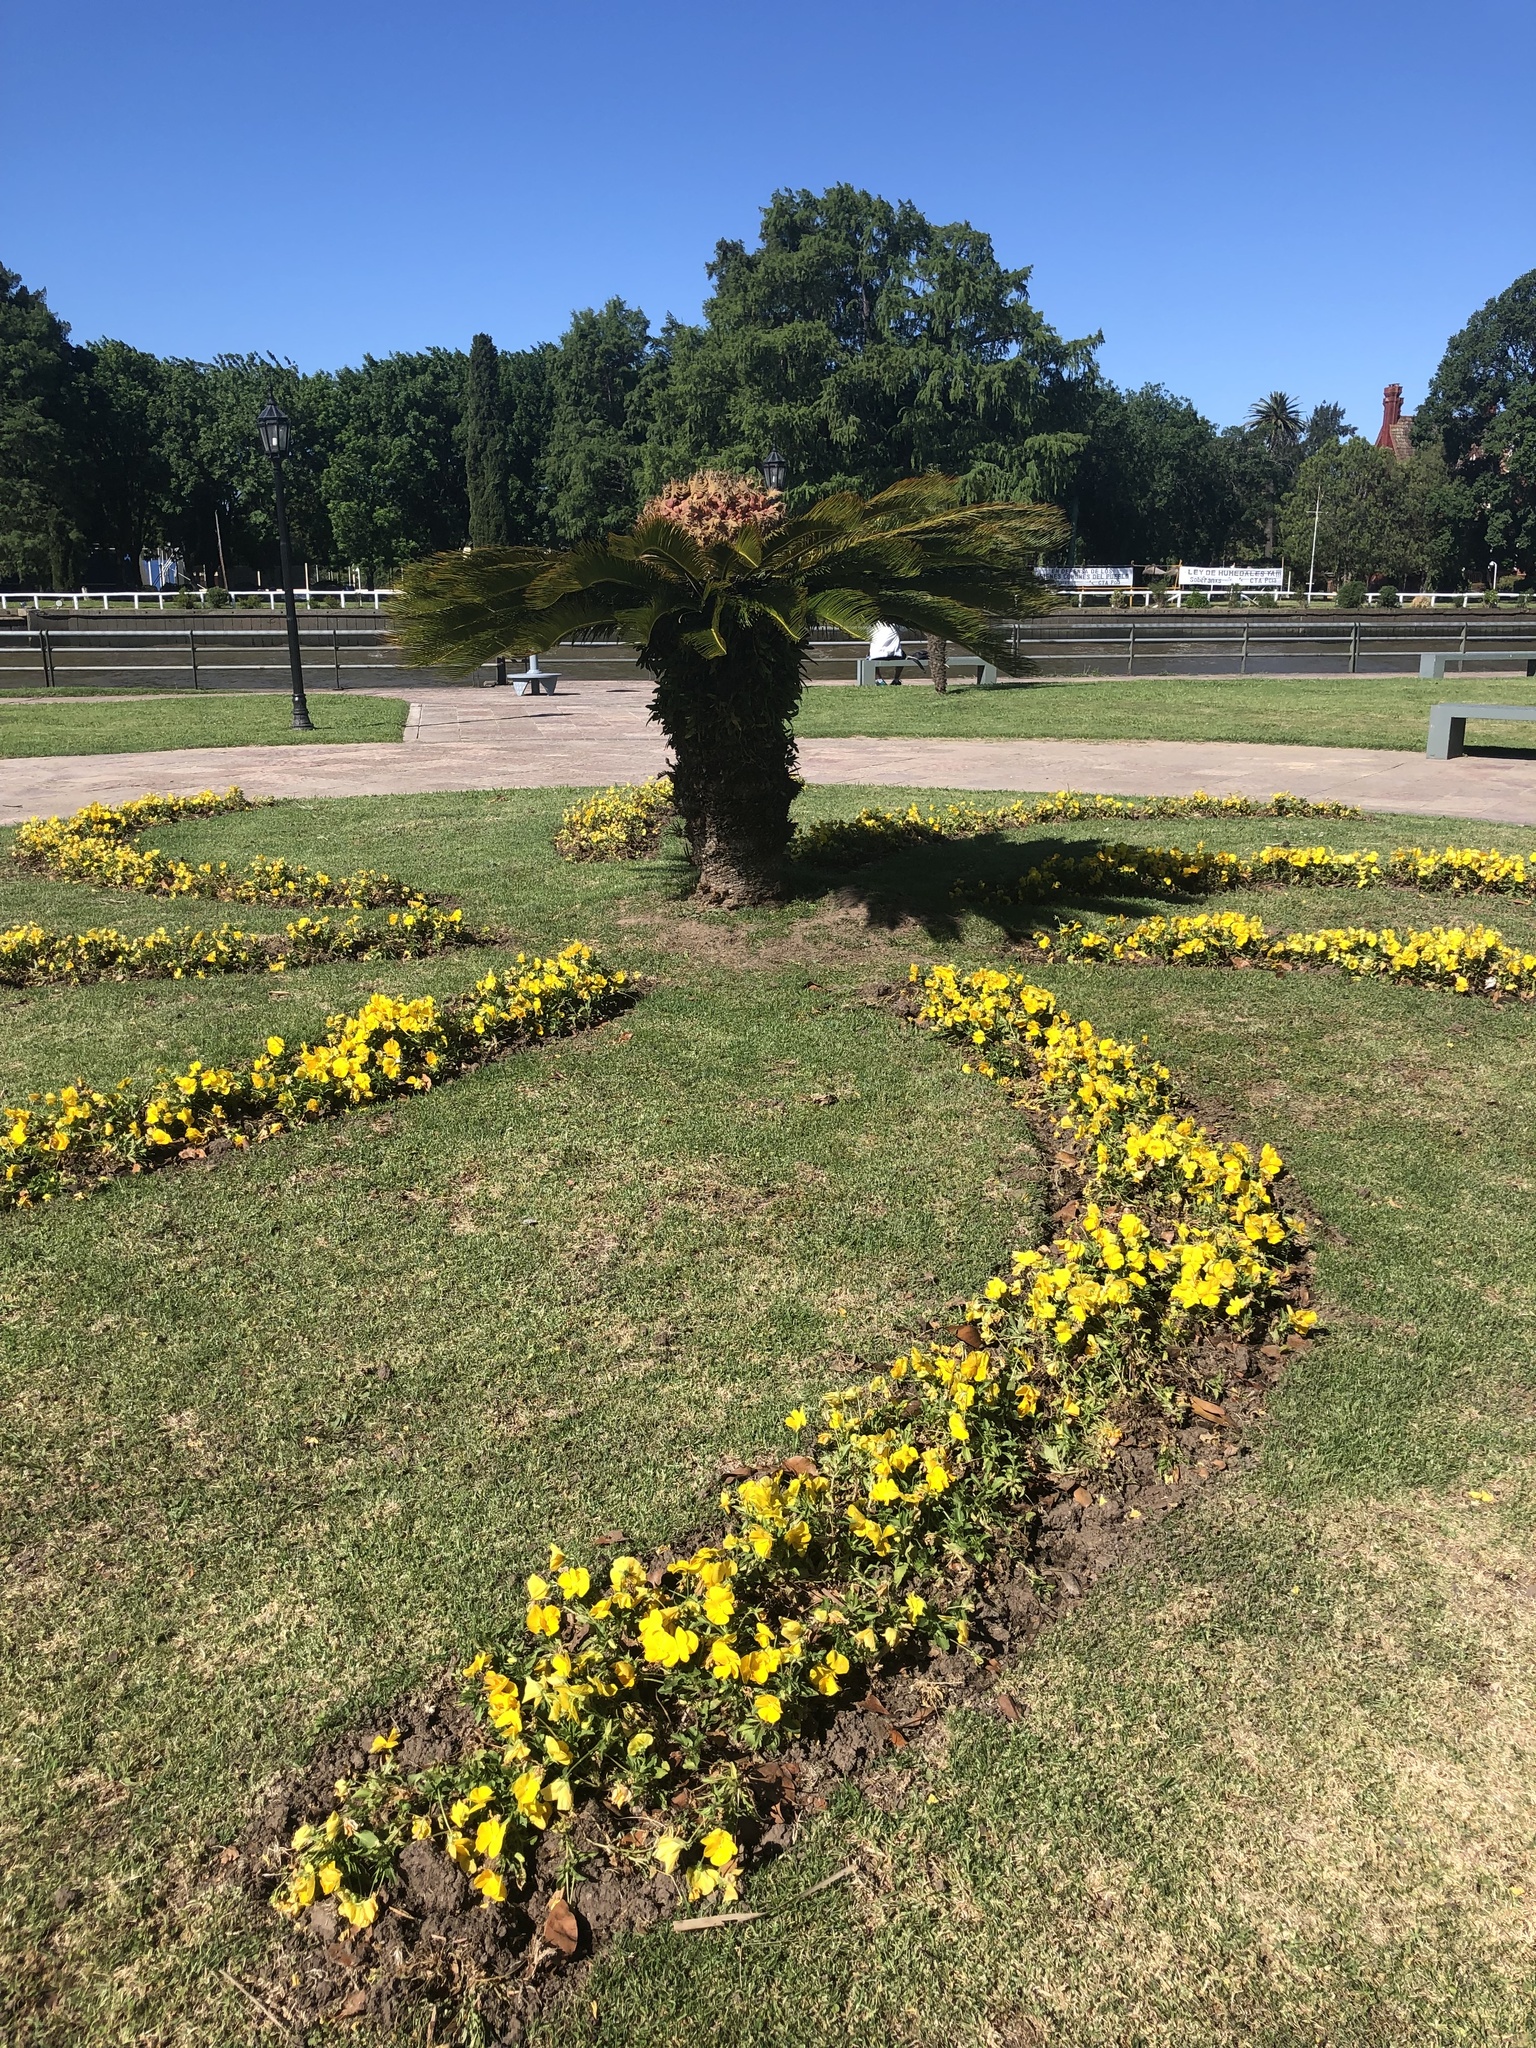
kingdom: Plantae
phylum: Tracheophyta
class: Cycadopsida
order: Cycadales
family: Cycadaceae
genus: Cycas
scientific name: Cycas revoluta
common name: Sago palm
